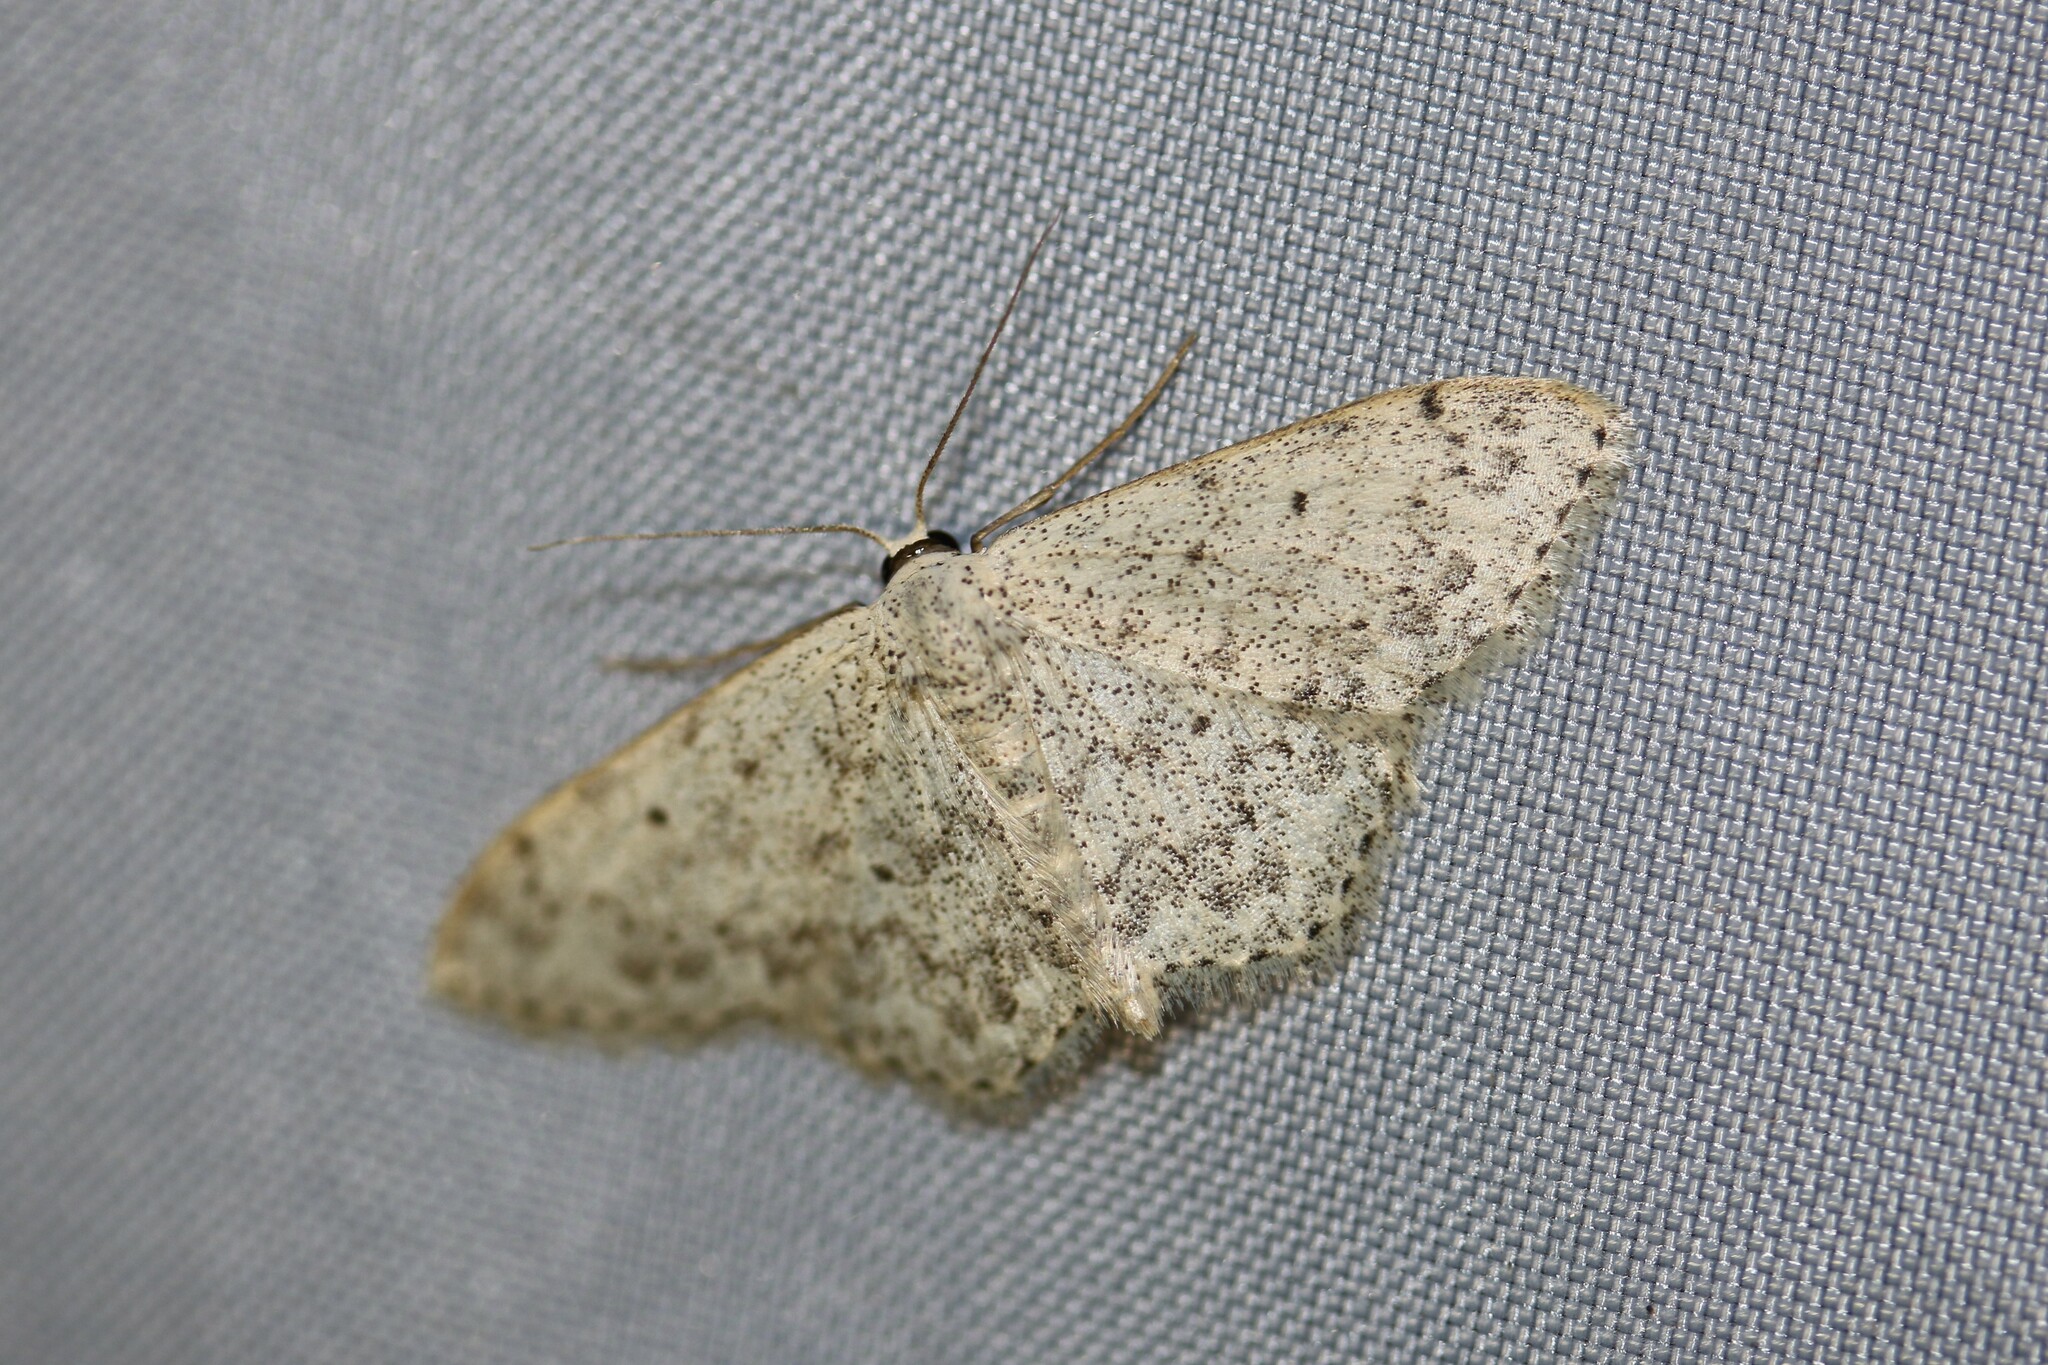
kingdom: Animalia
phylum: Arthropoda
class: Insecta
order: Lepidoptera
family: Geometridae
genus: Scopula
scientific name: Scopula marginepunctata
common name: Mullein wave
